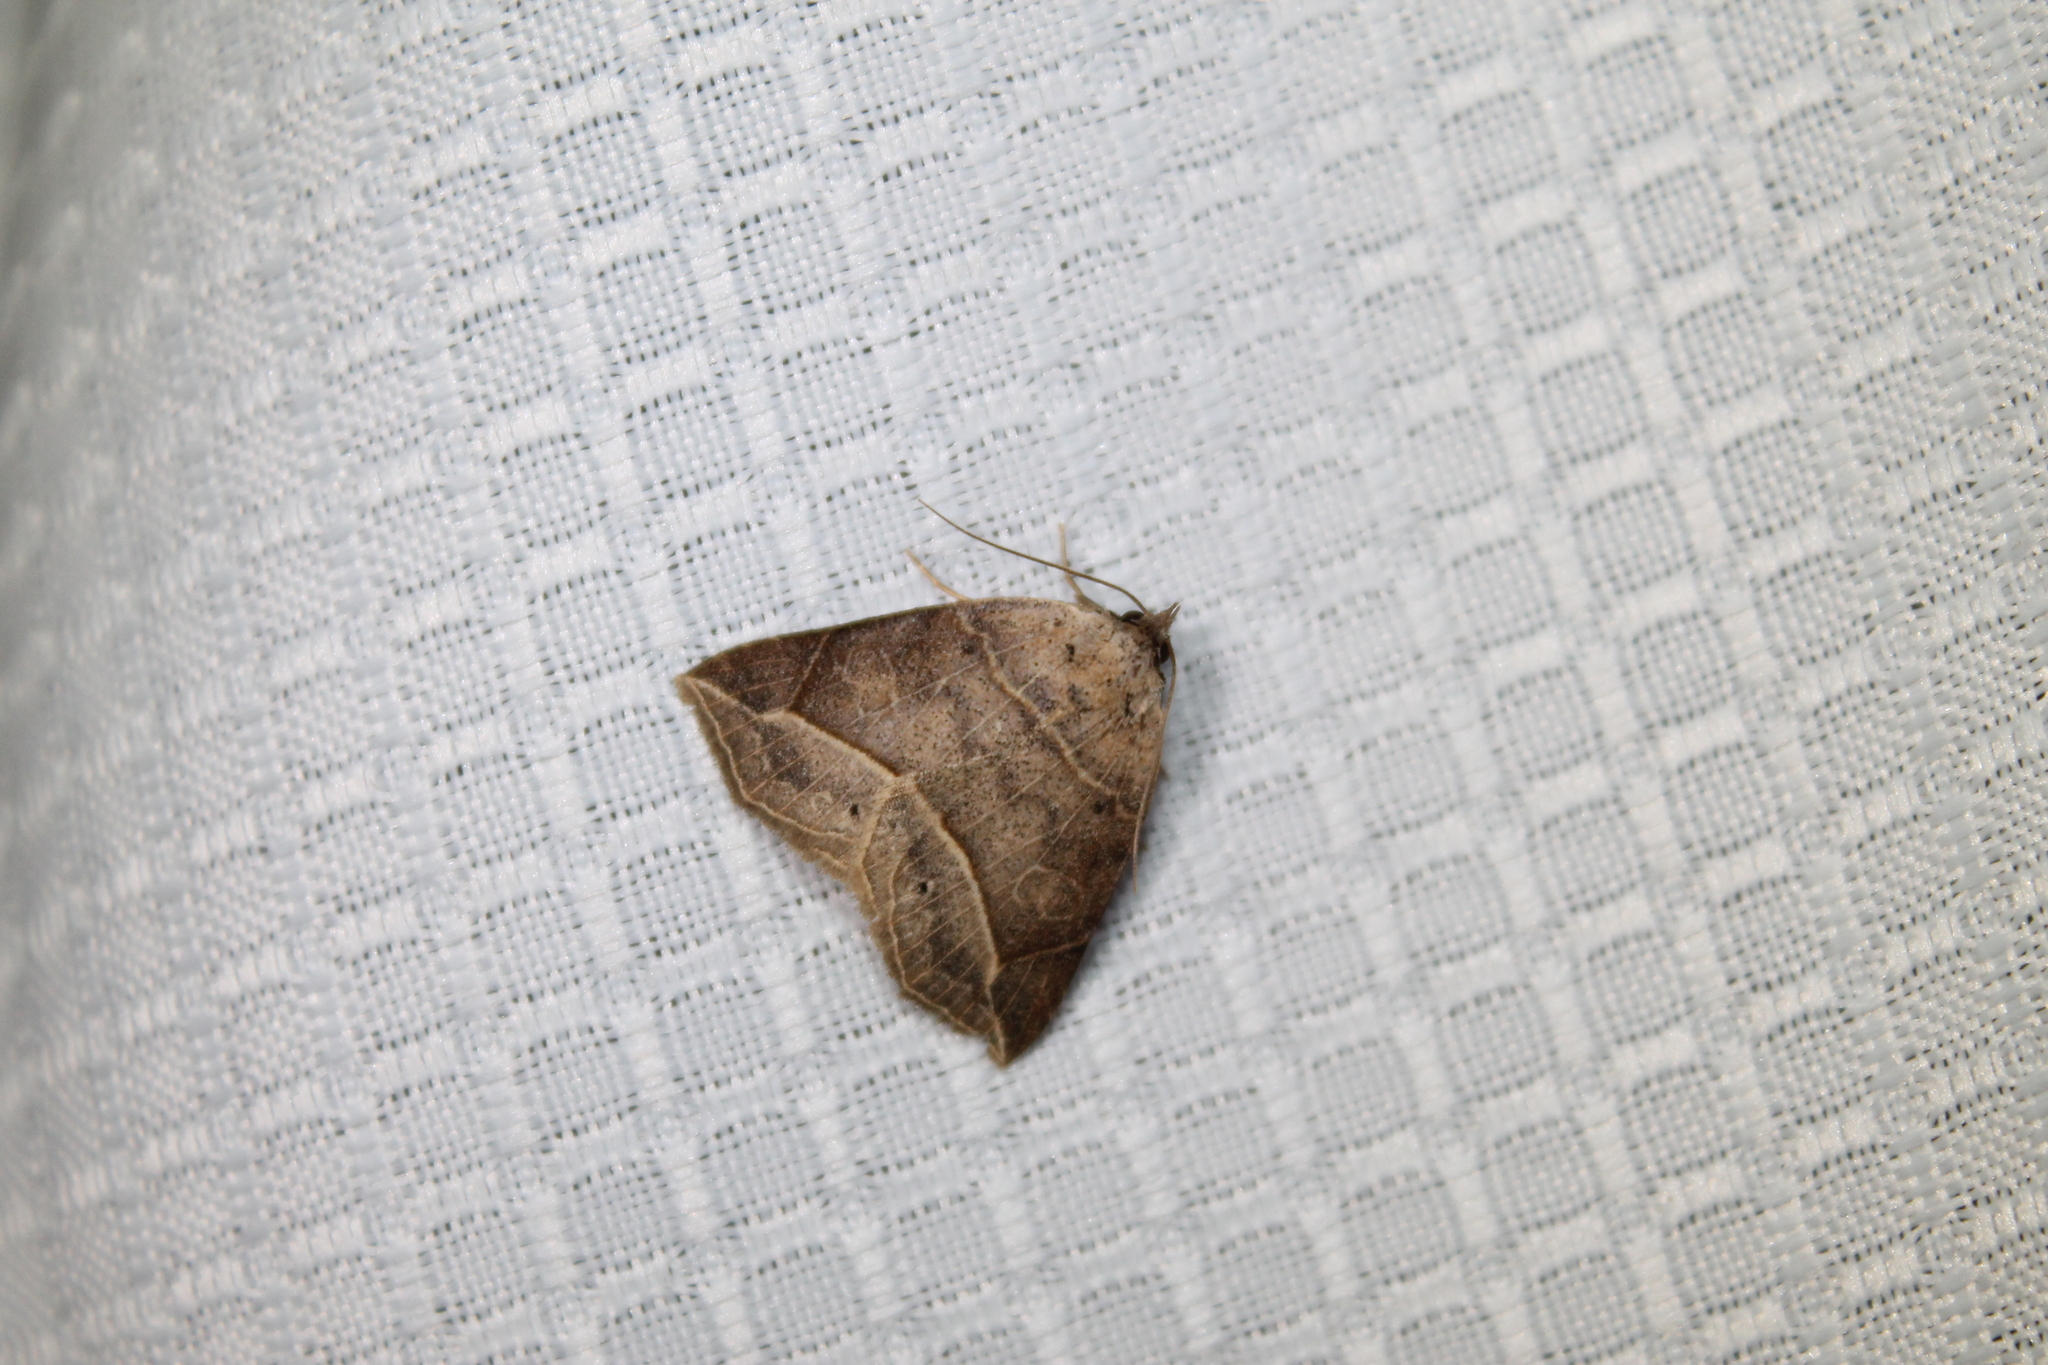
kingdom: Animalia
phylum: Arthropoda
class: Insecta
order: Lepidoptera
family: Erebidae
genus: Isogona
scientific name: Isogona tenuis
